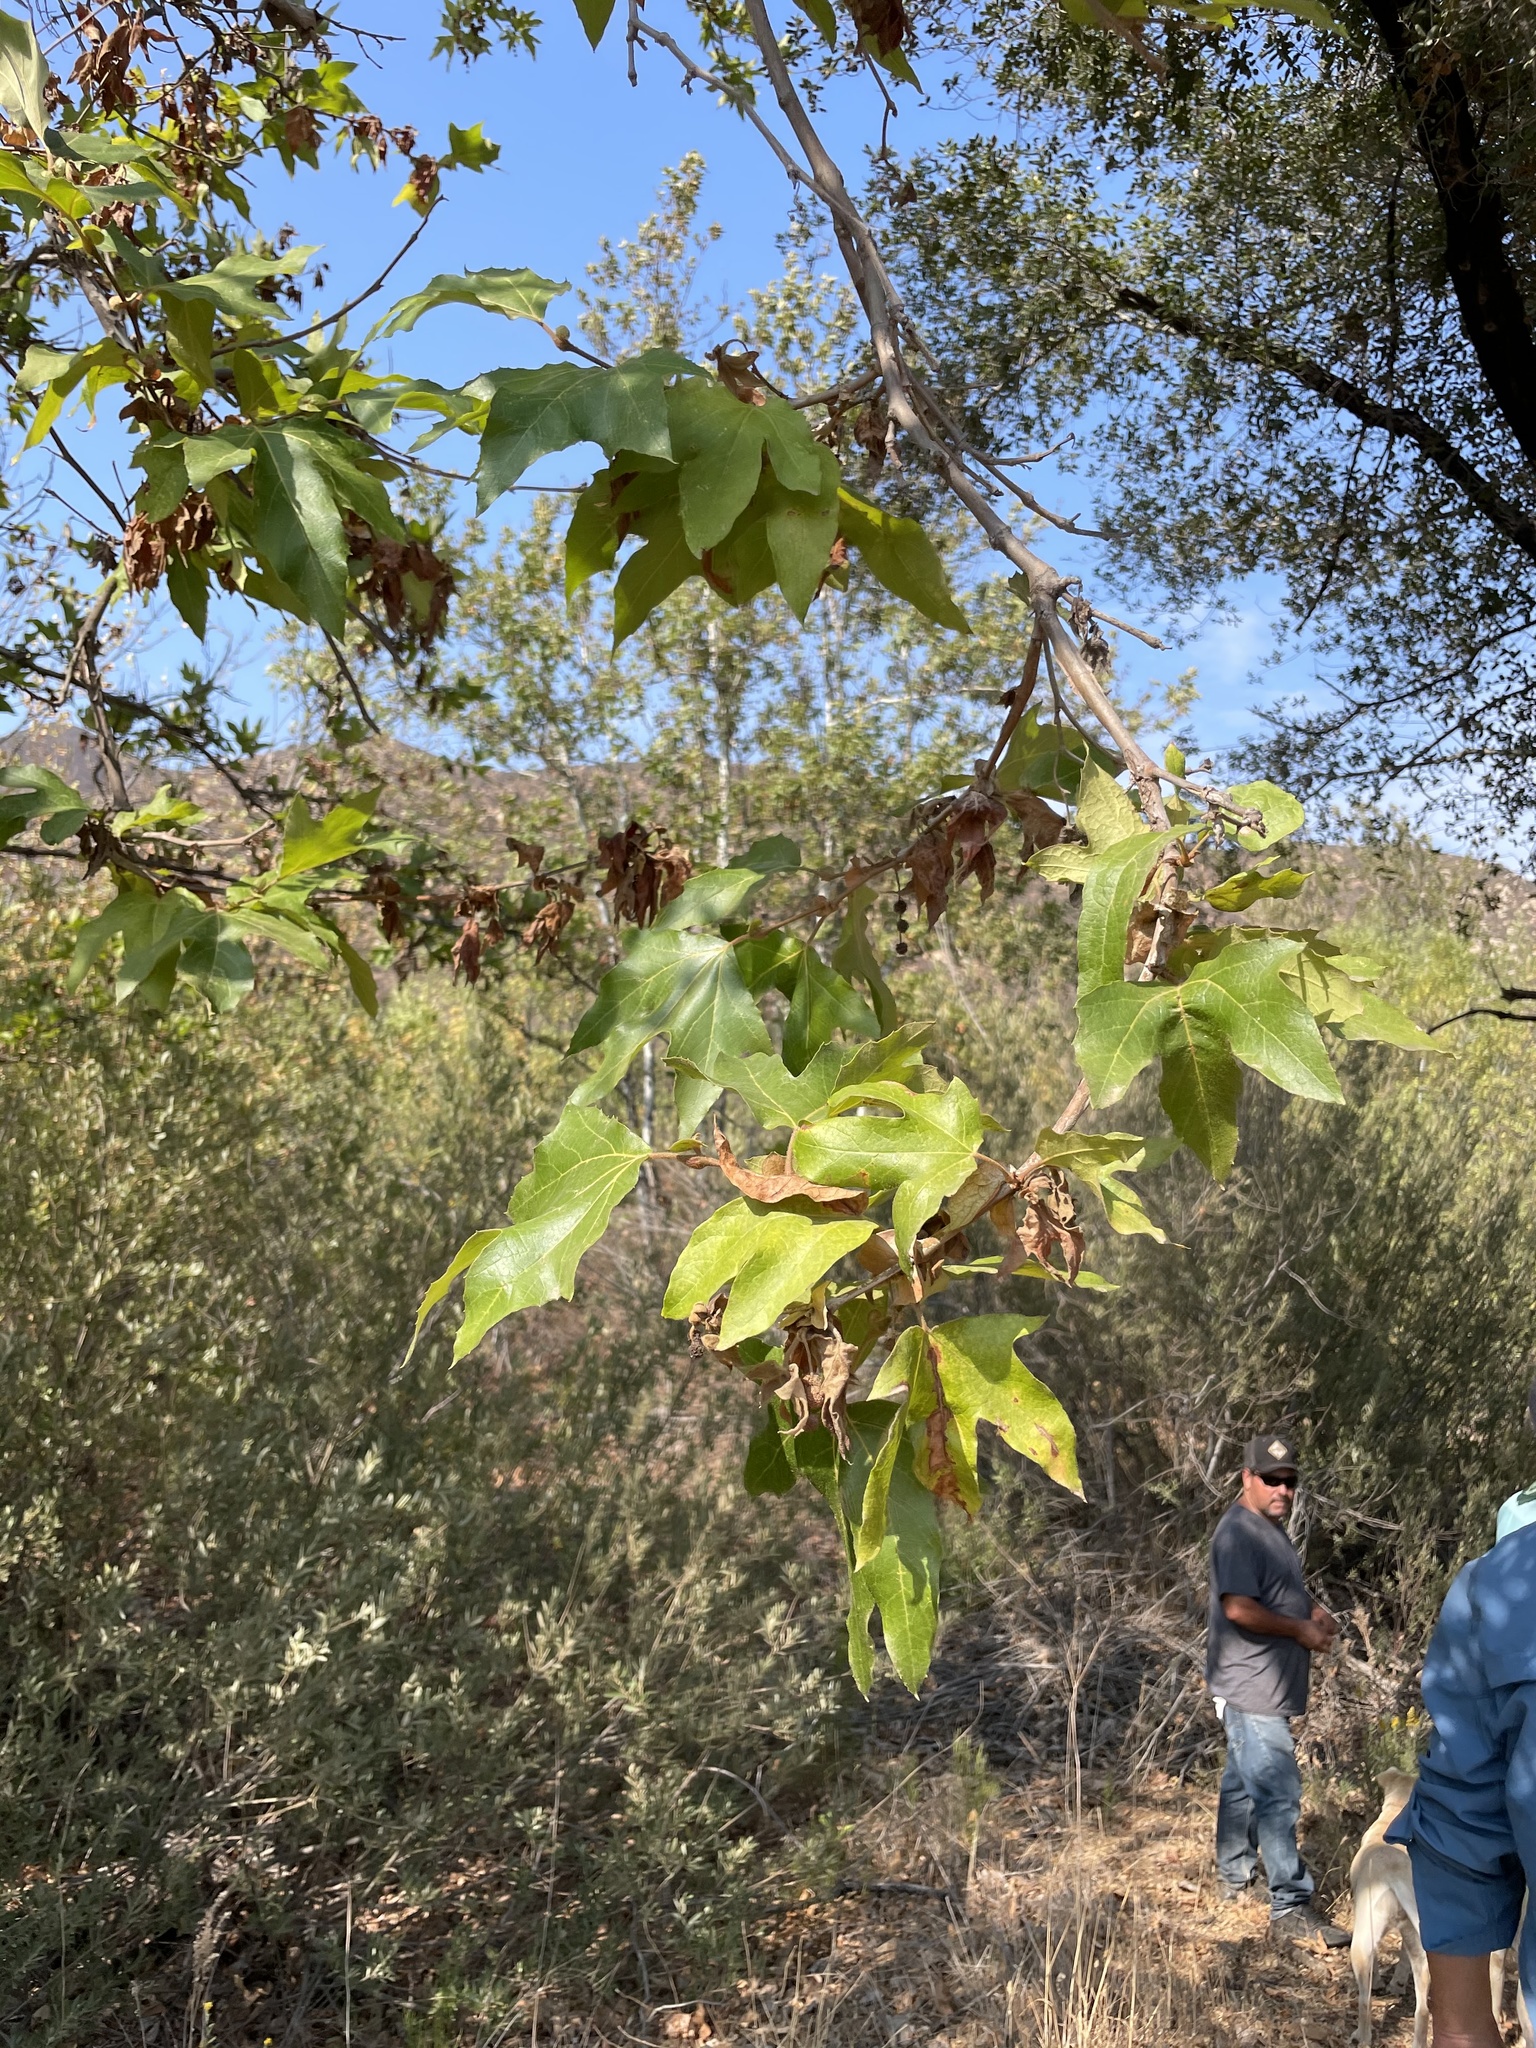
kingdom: Plantae
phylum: Tracheophyta
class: Magnoliopsida
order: Proteales
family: Platanaceae
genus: Platanus
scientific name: Platanus racemosa
